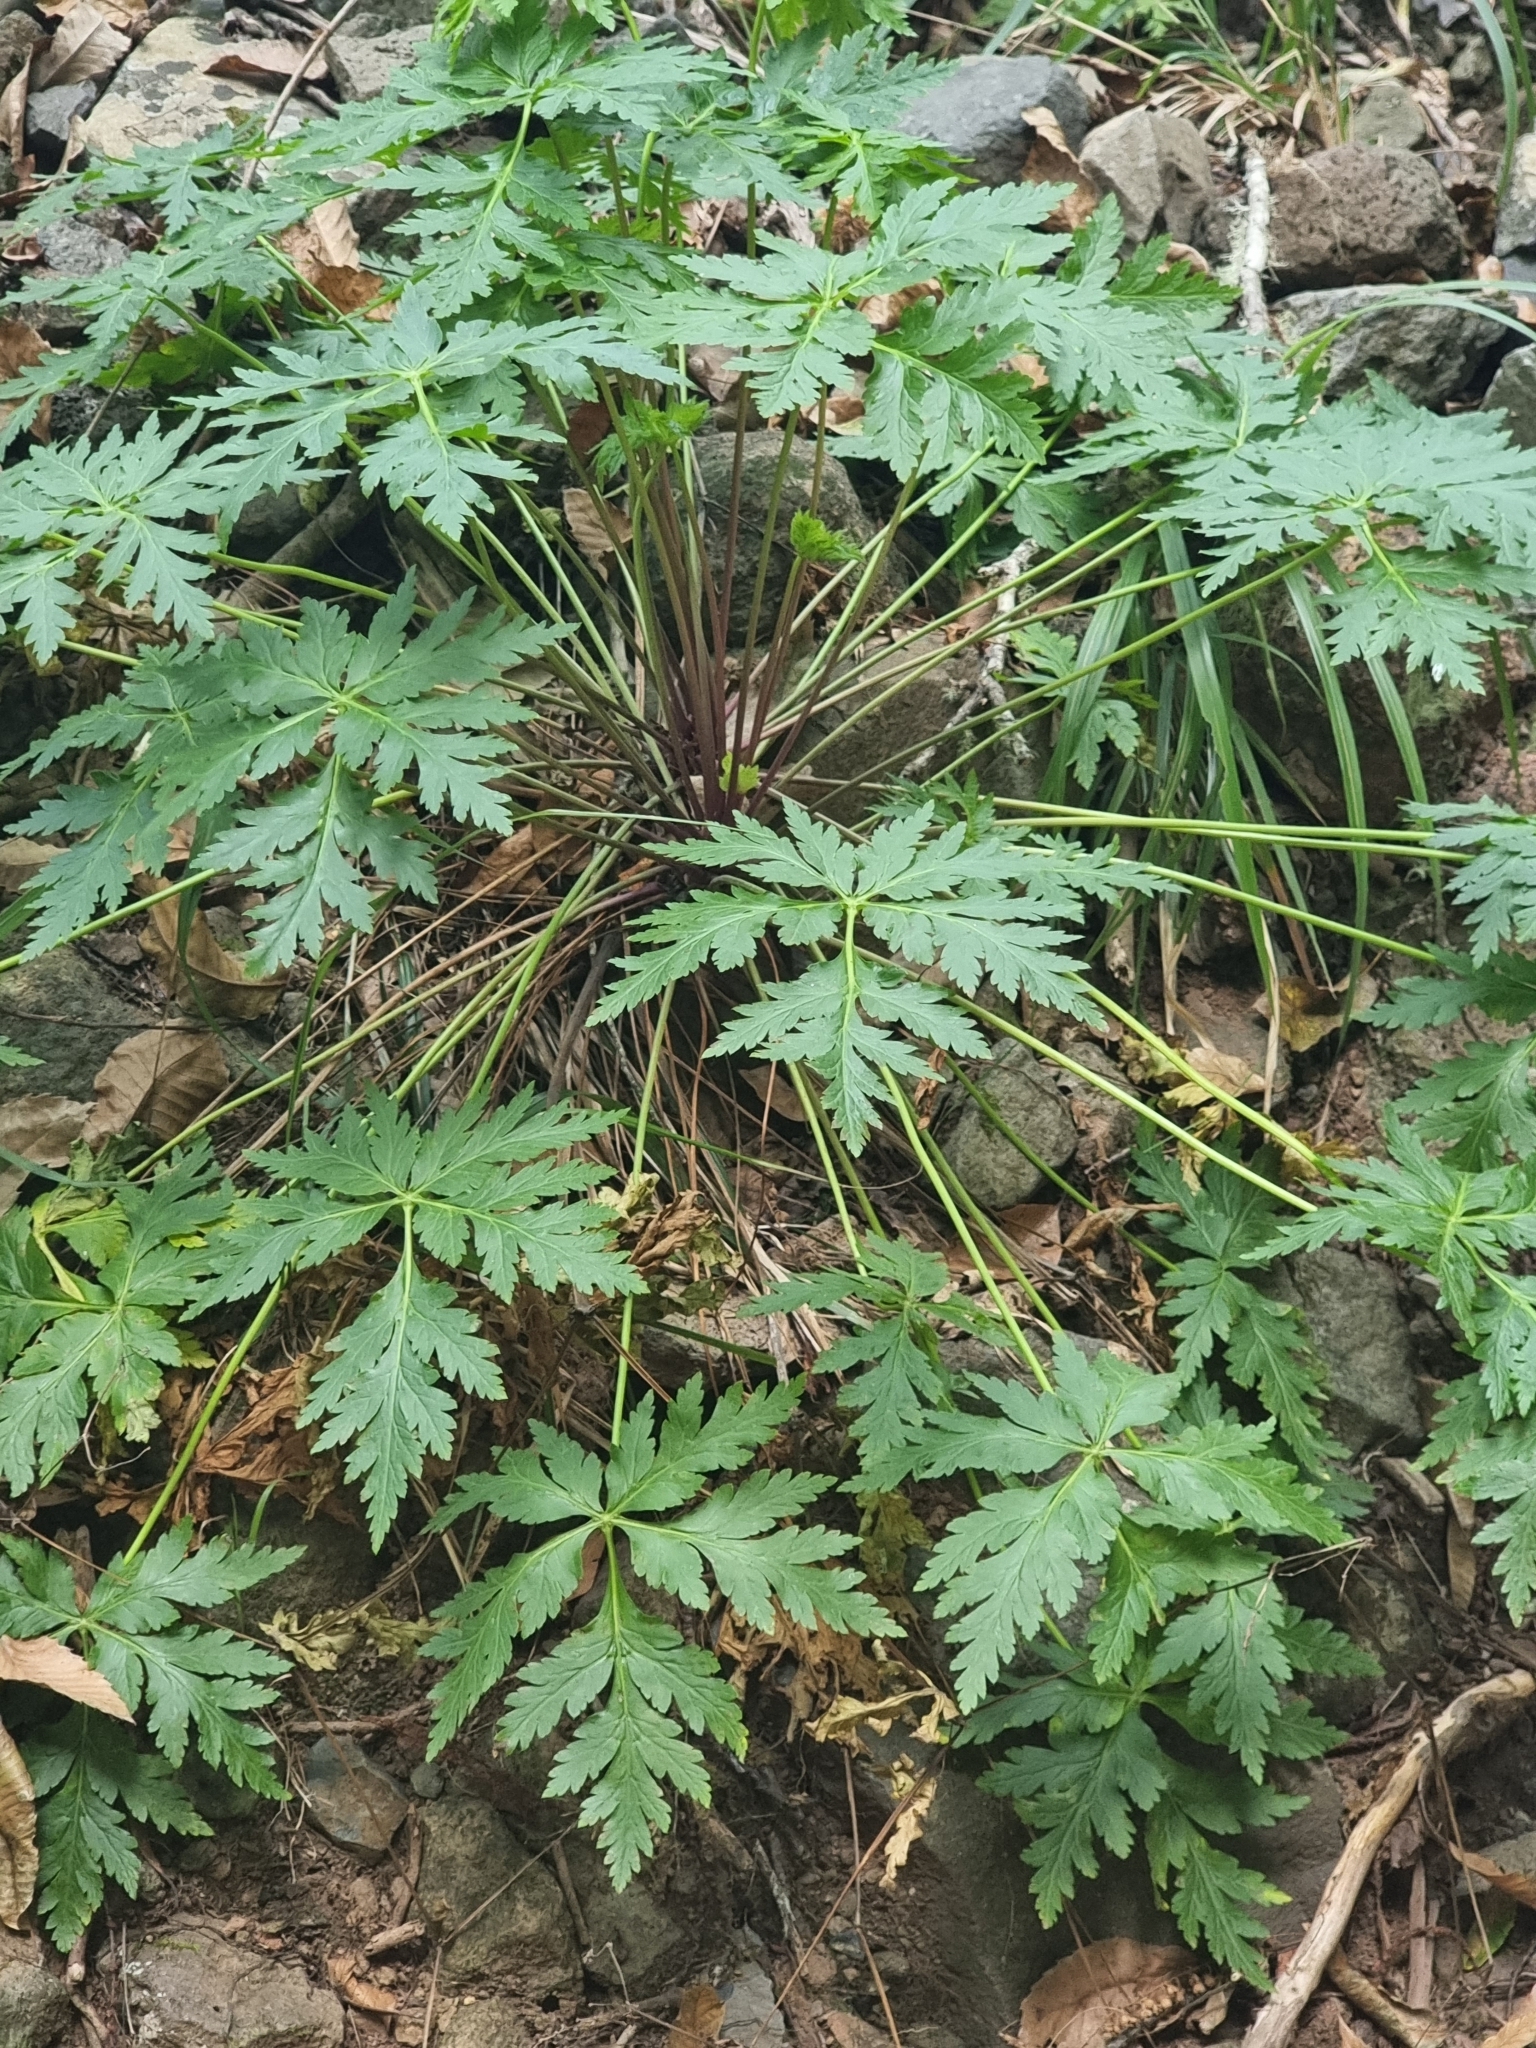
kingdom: Plantae
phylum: Tracheophyta
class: Magnoliopsida
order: Geraniales
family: Geraniaceae
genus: Geranium
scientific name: Geranium palmatum
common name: Canary island geranium
